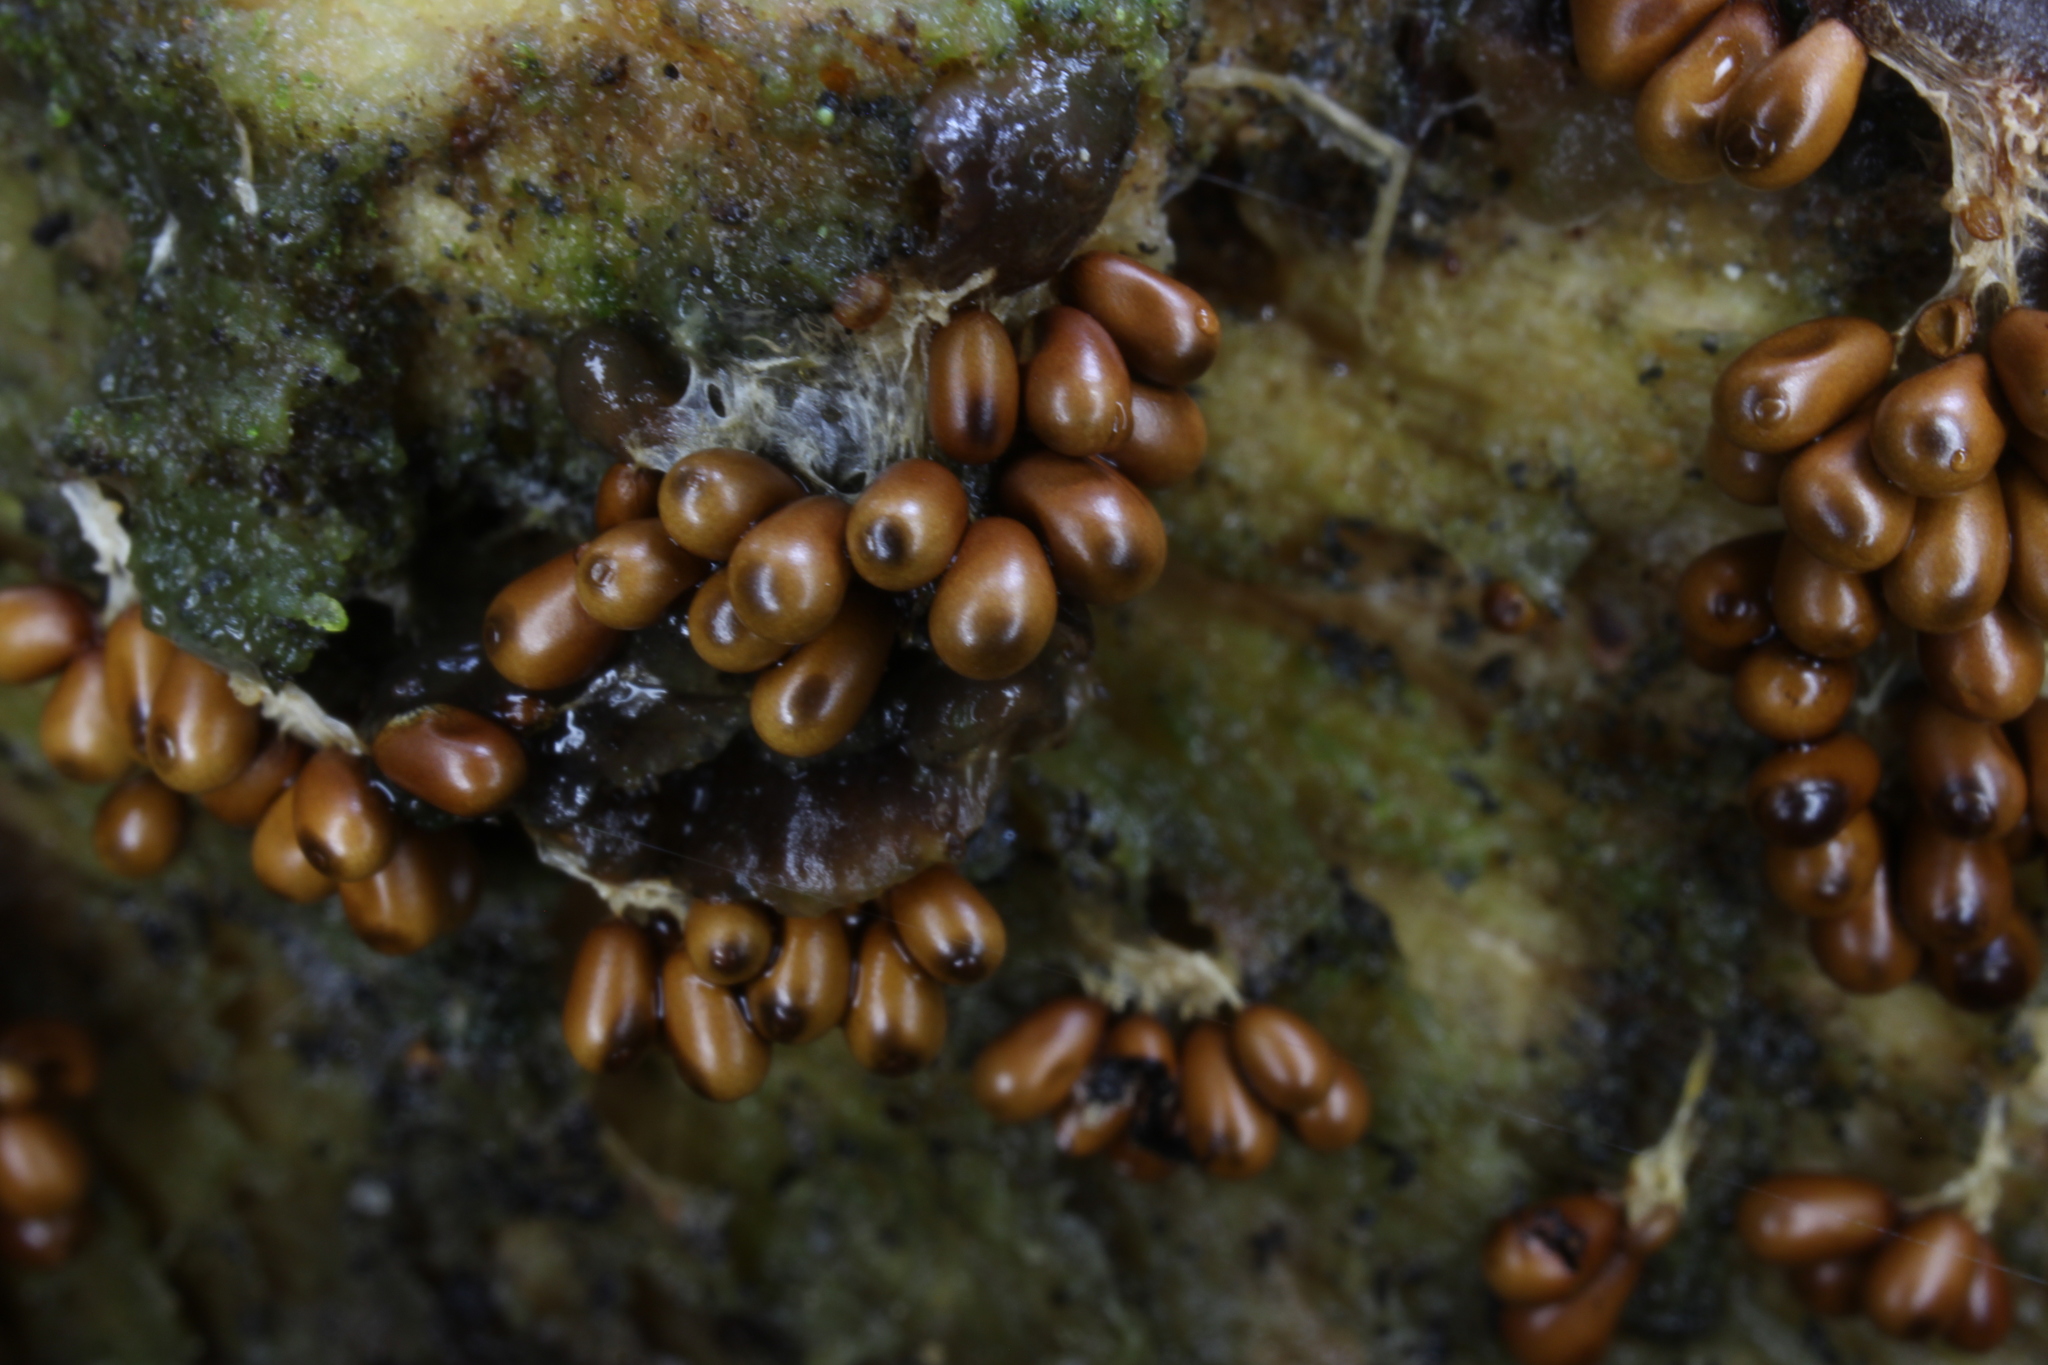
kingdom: Protozoa
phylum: Mycetozoa
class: Myxomycetes
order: Physarales
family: Physaraceae
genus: Leocarpus
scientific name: Leocarpus fragilis
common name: Insect-egg slime
